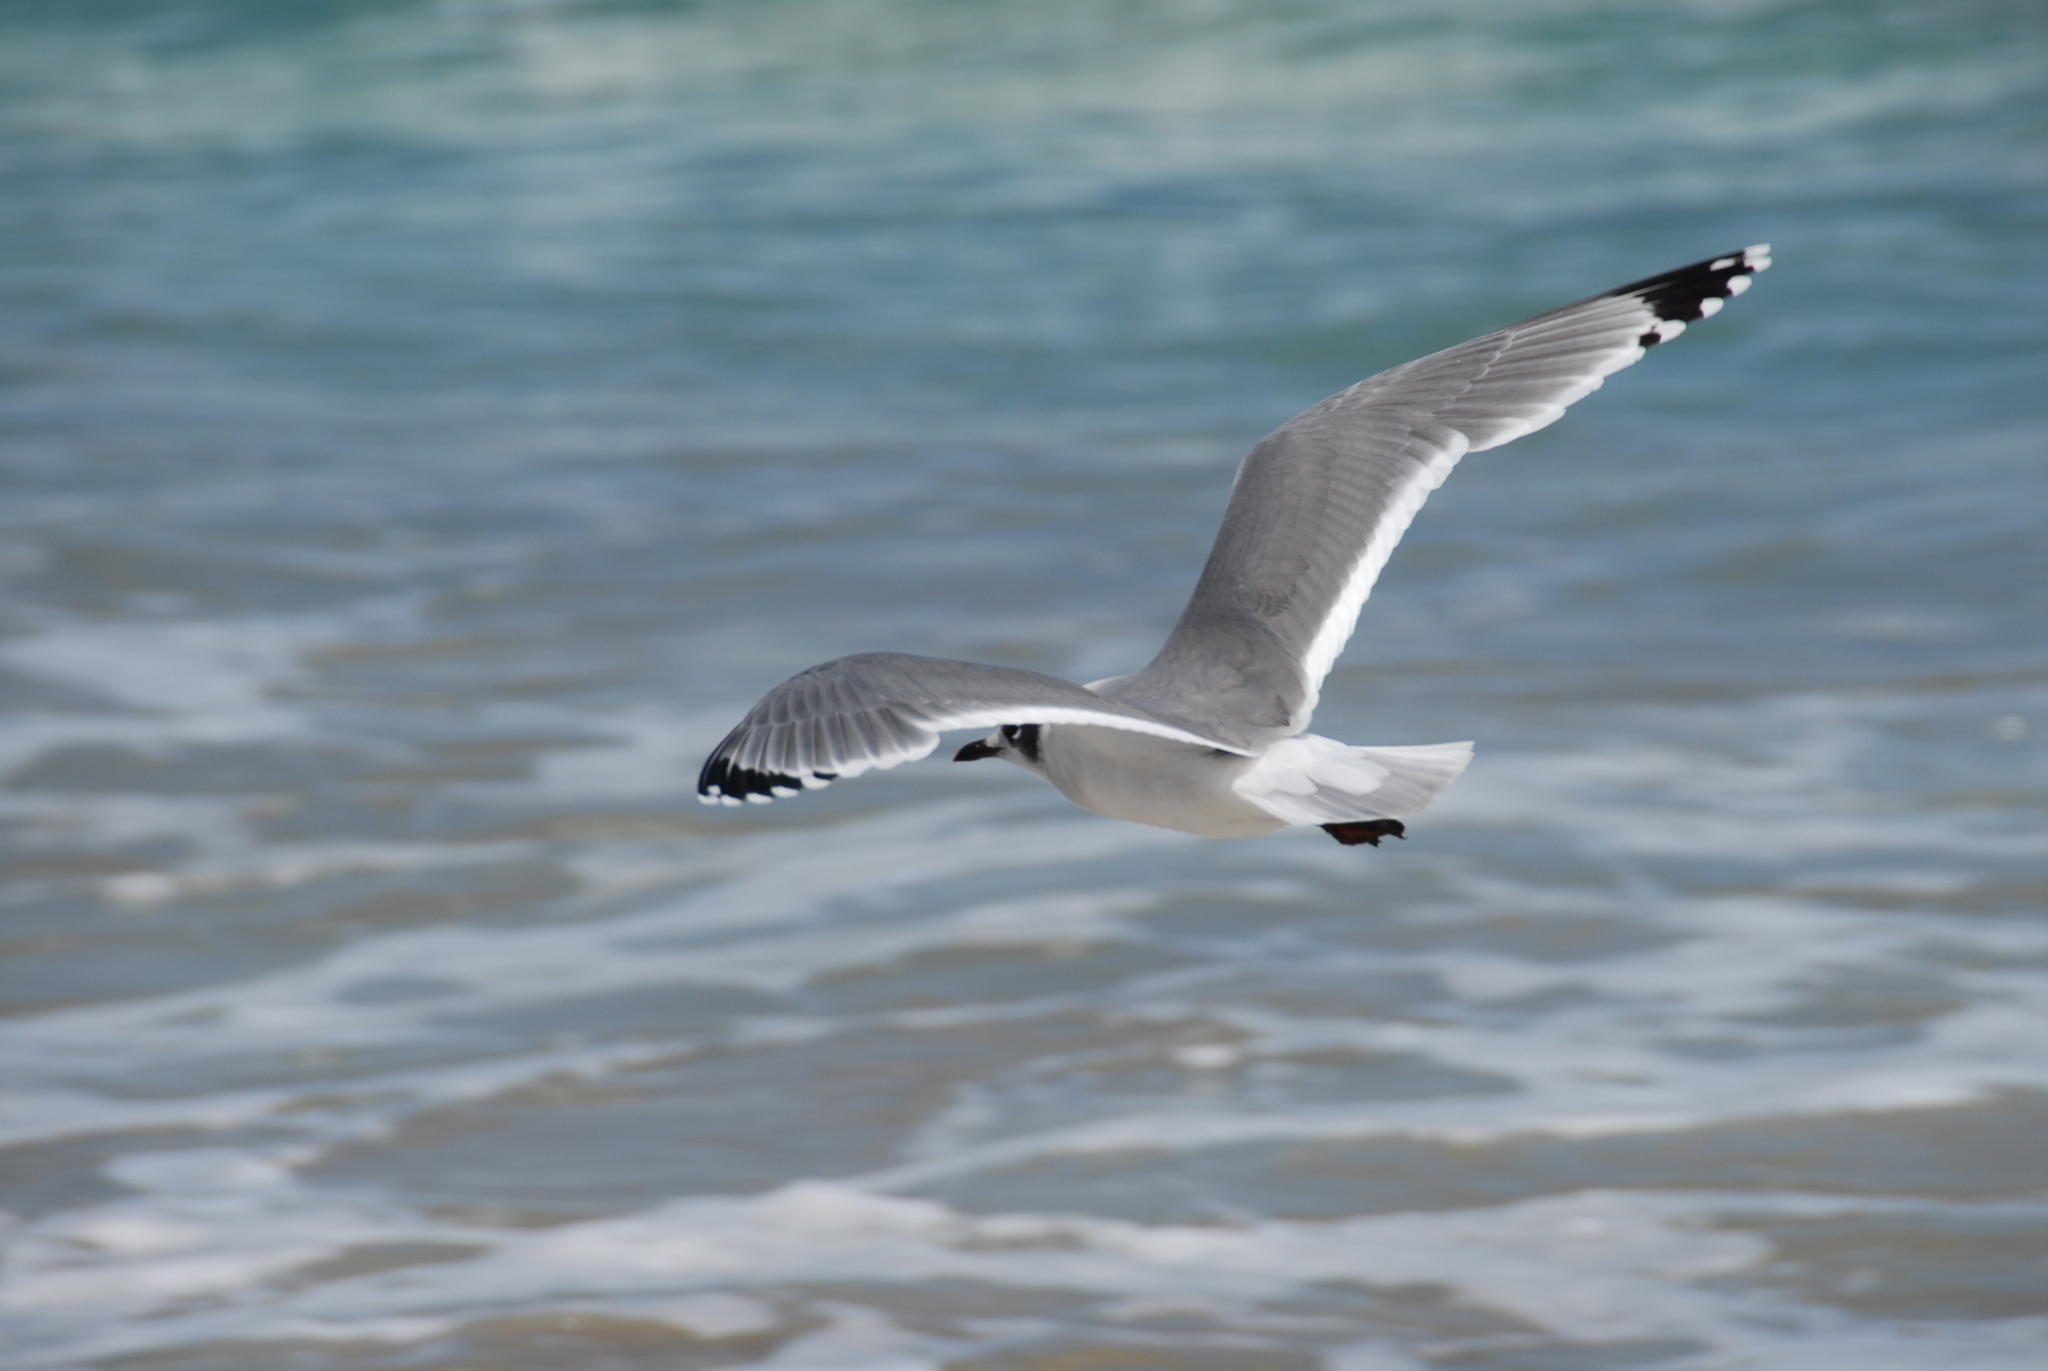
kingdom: Animalia
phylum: Chordata
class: Aves
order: Charadriiformes
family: Laridae
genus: Leucophaeus
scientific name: Leucophaeus pipixcan
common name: Franklin's gull
